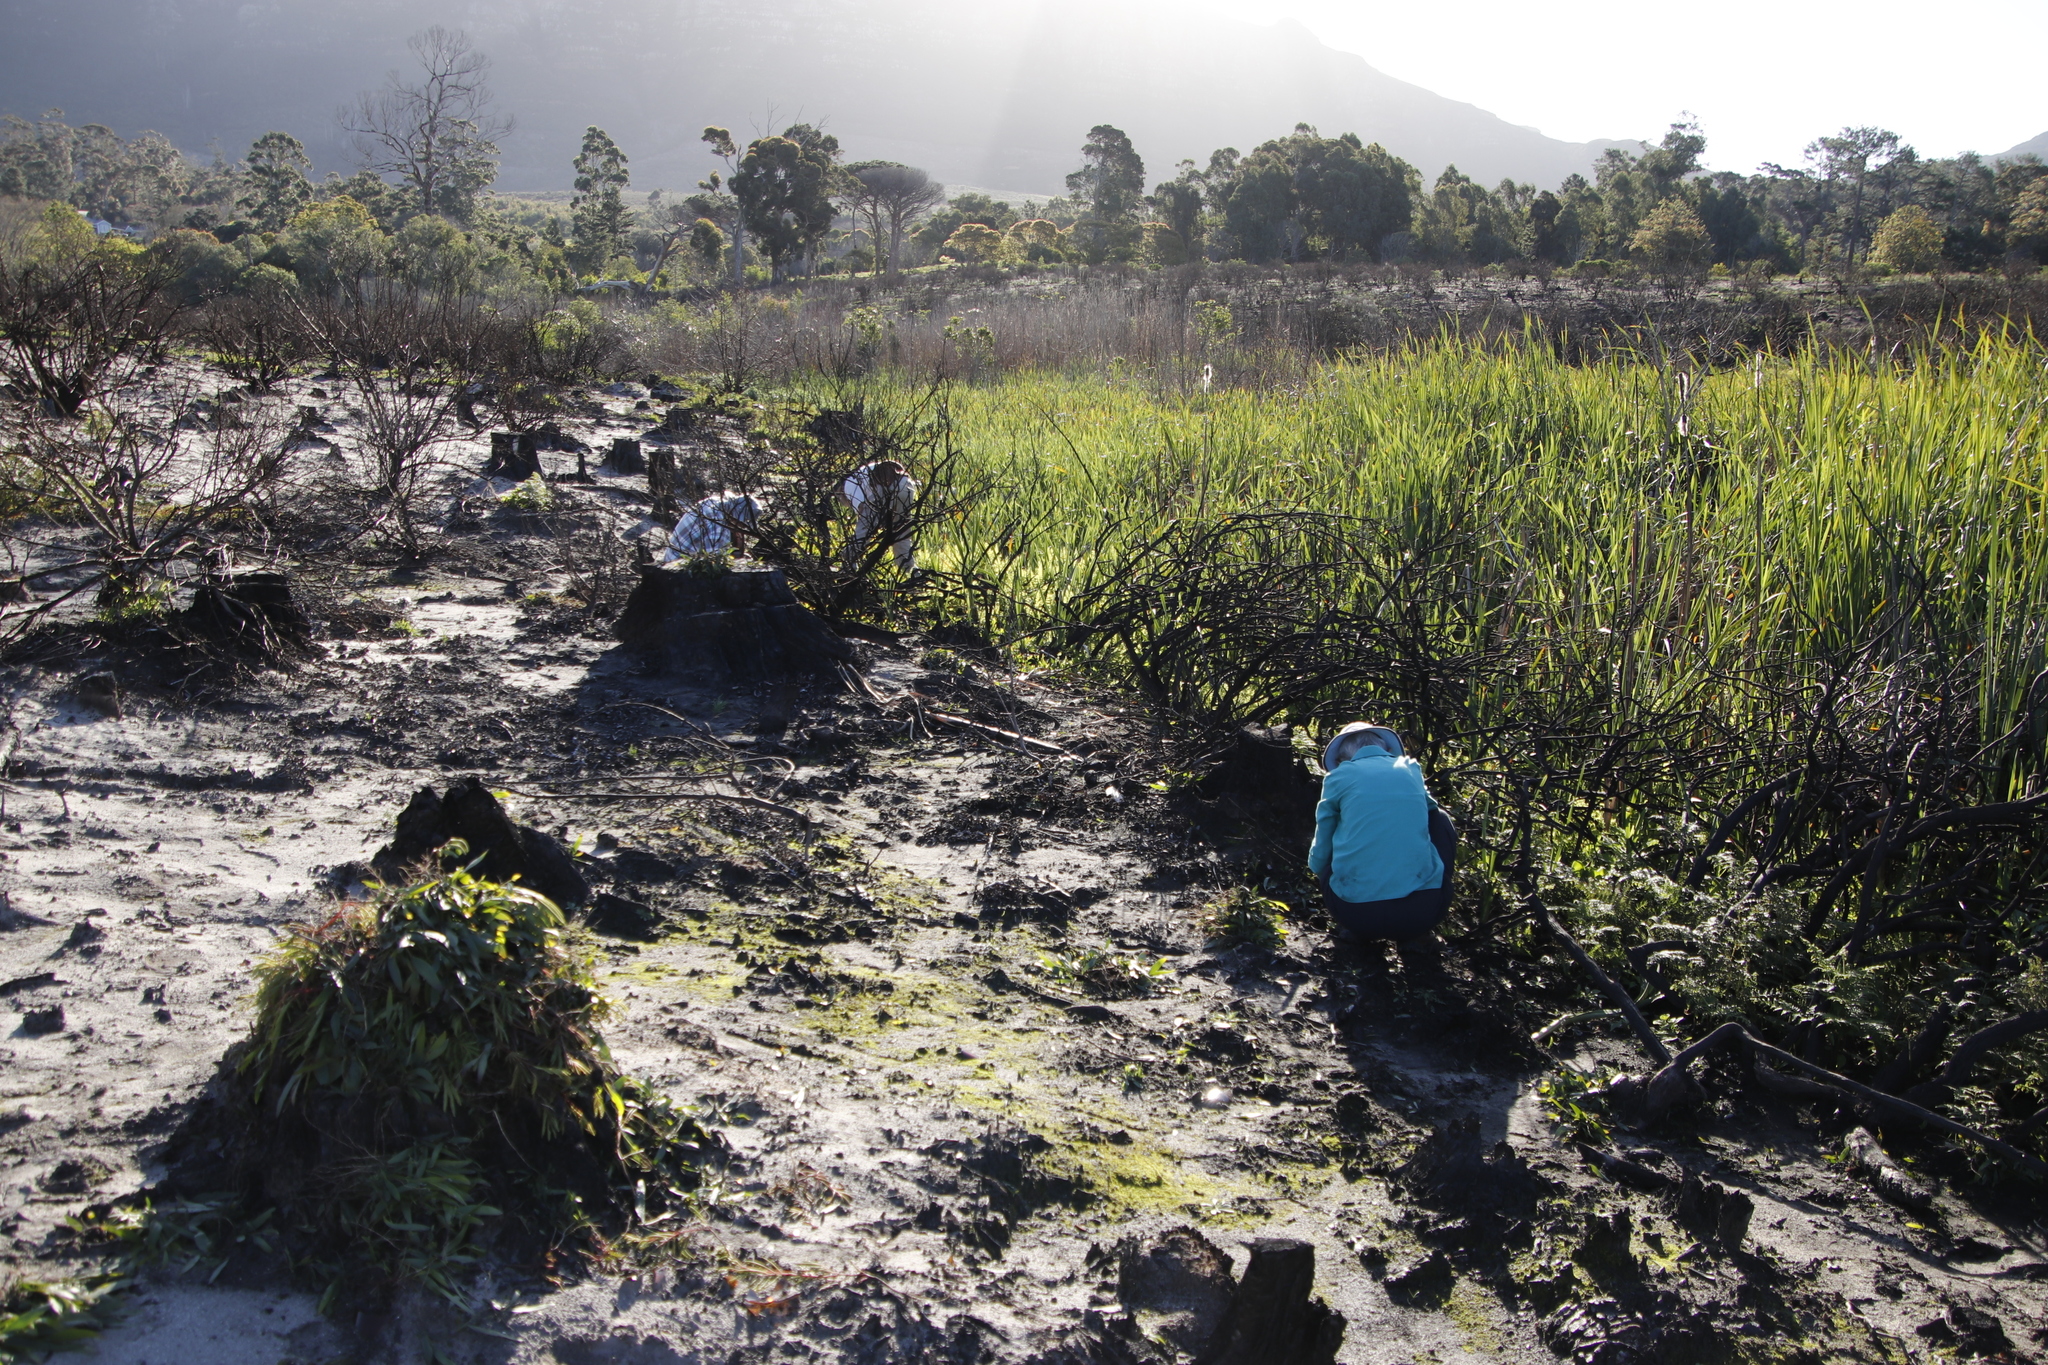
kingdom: Plantae
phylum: Tracheophyta
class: Liliopsida
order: Poales
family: Typhaceae
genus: Typha
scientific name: Typha capensis
